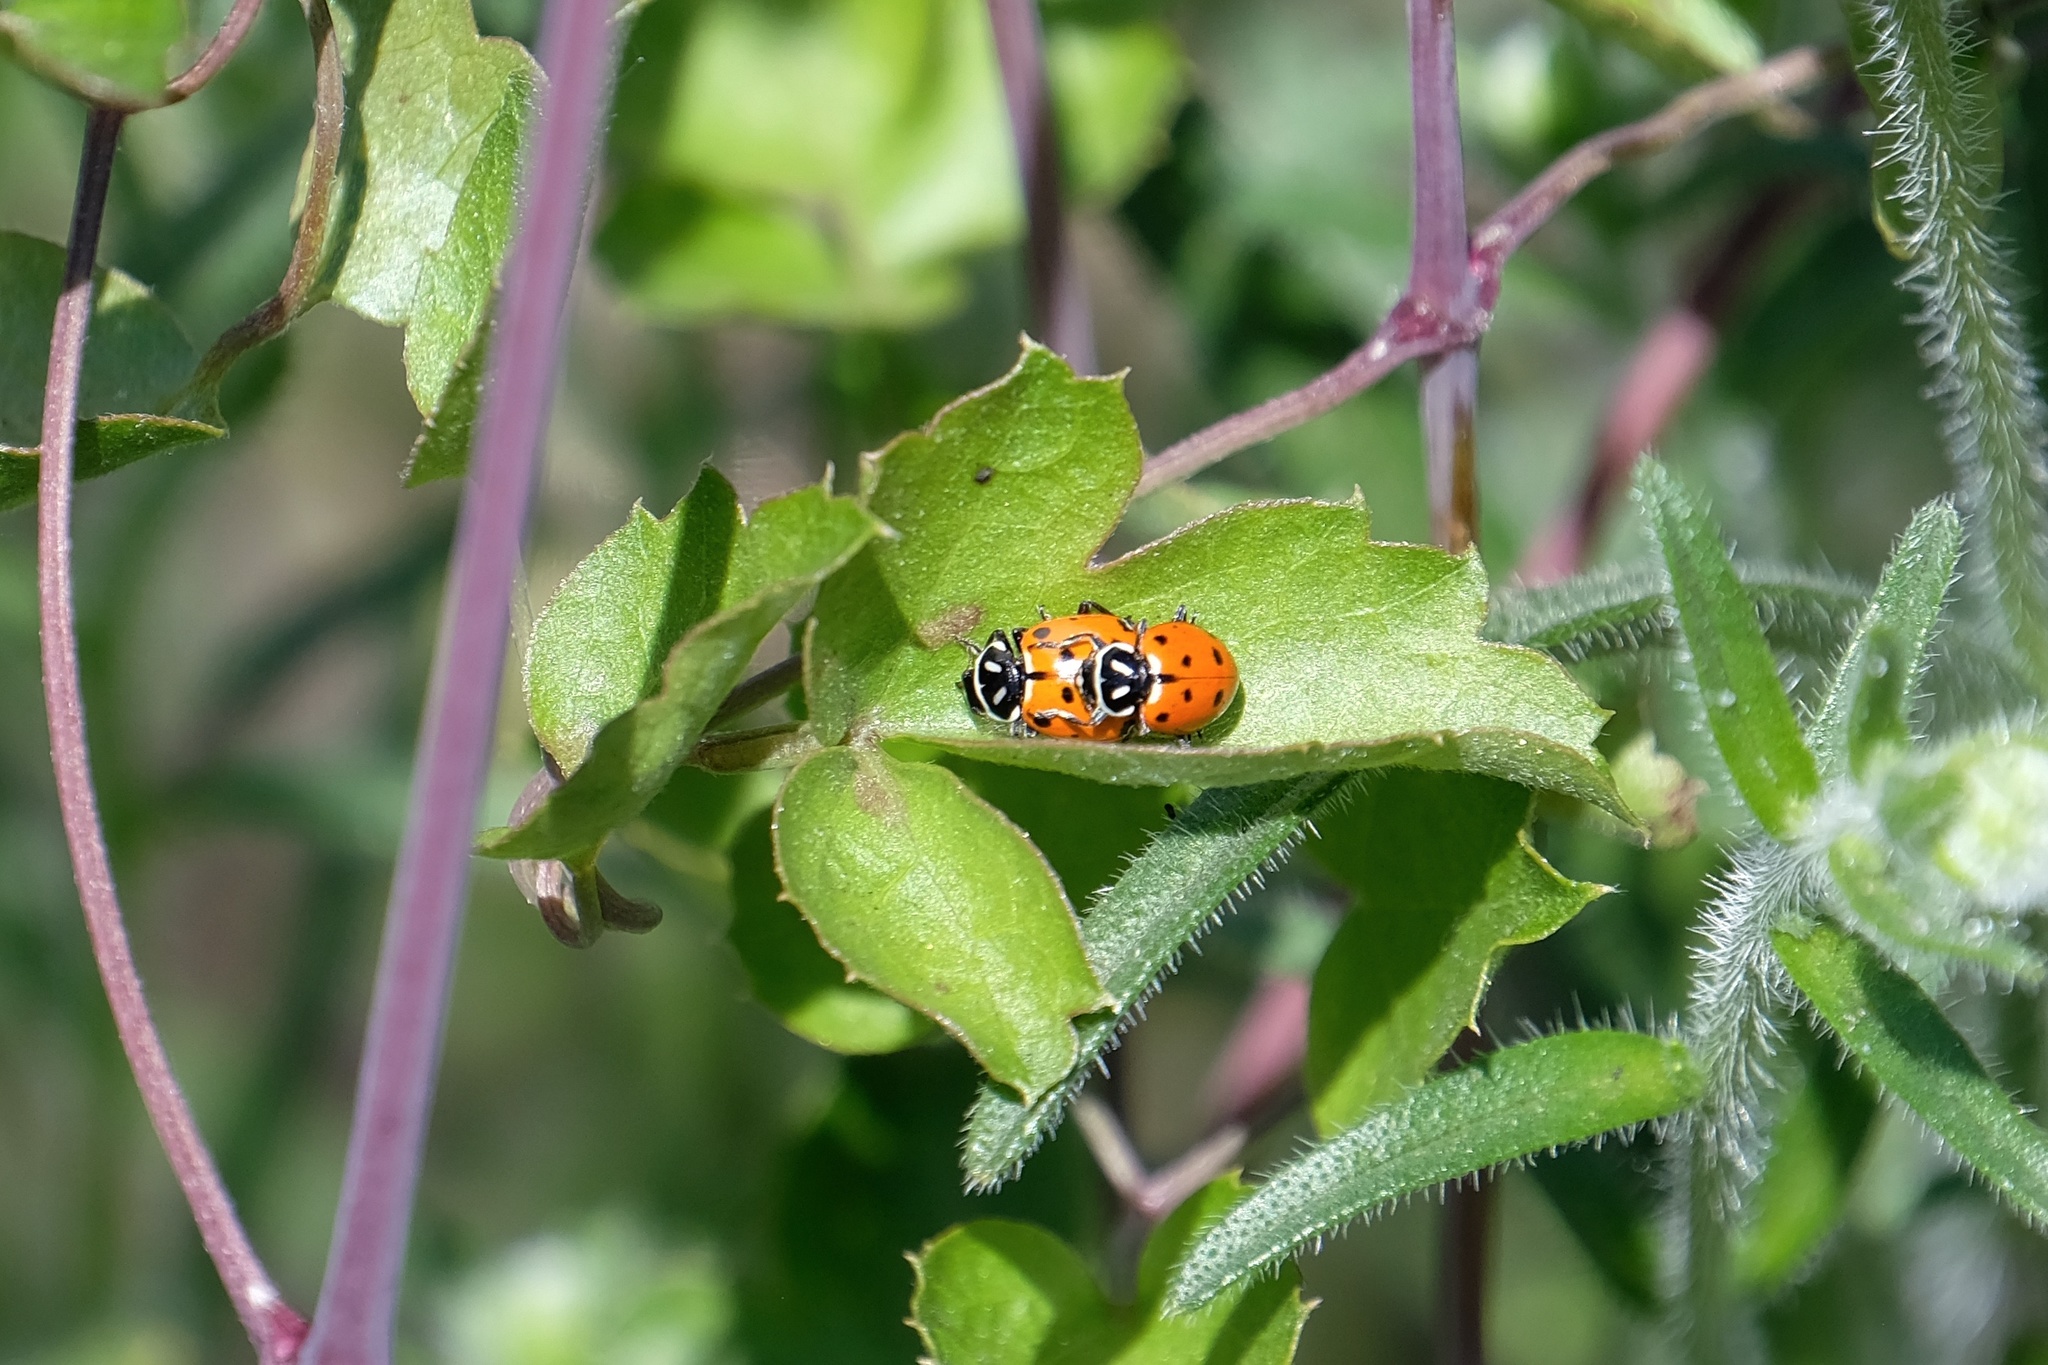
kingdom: Animalia
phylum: Arthropoda
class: Insecta
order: Coleoptera
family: Coccinellidae
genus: Hippodamia
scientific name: Hippodamia convergens
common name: Convergent lady beetle
